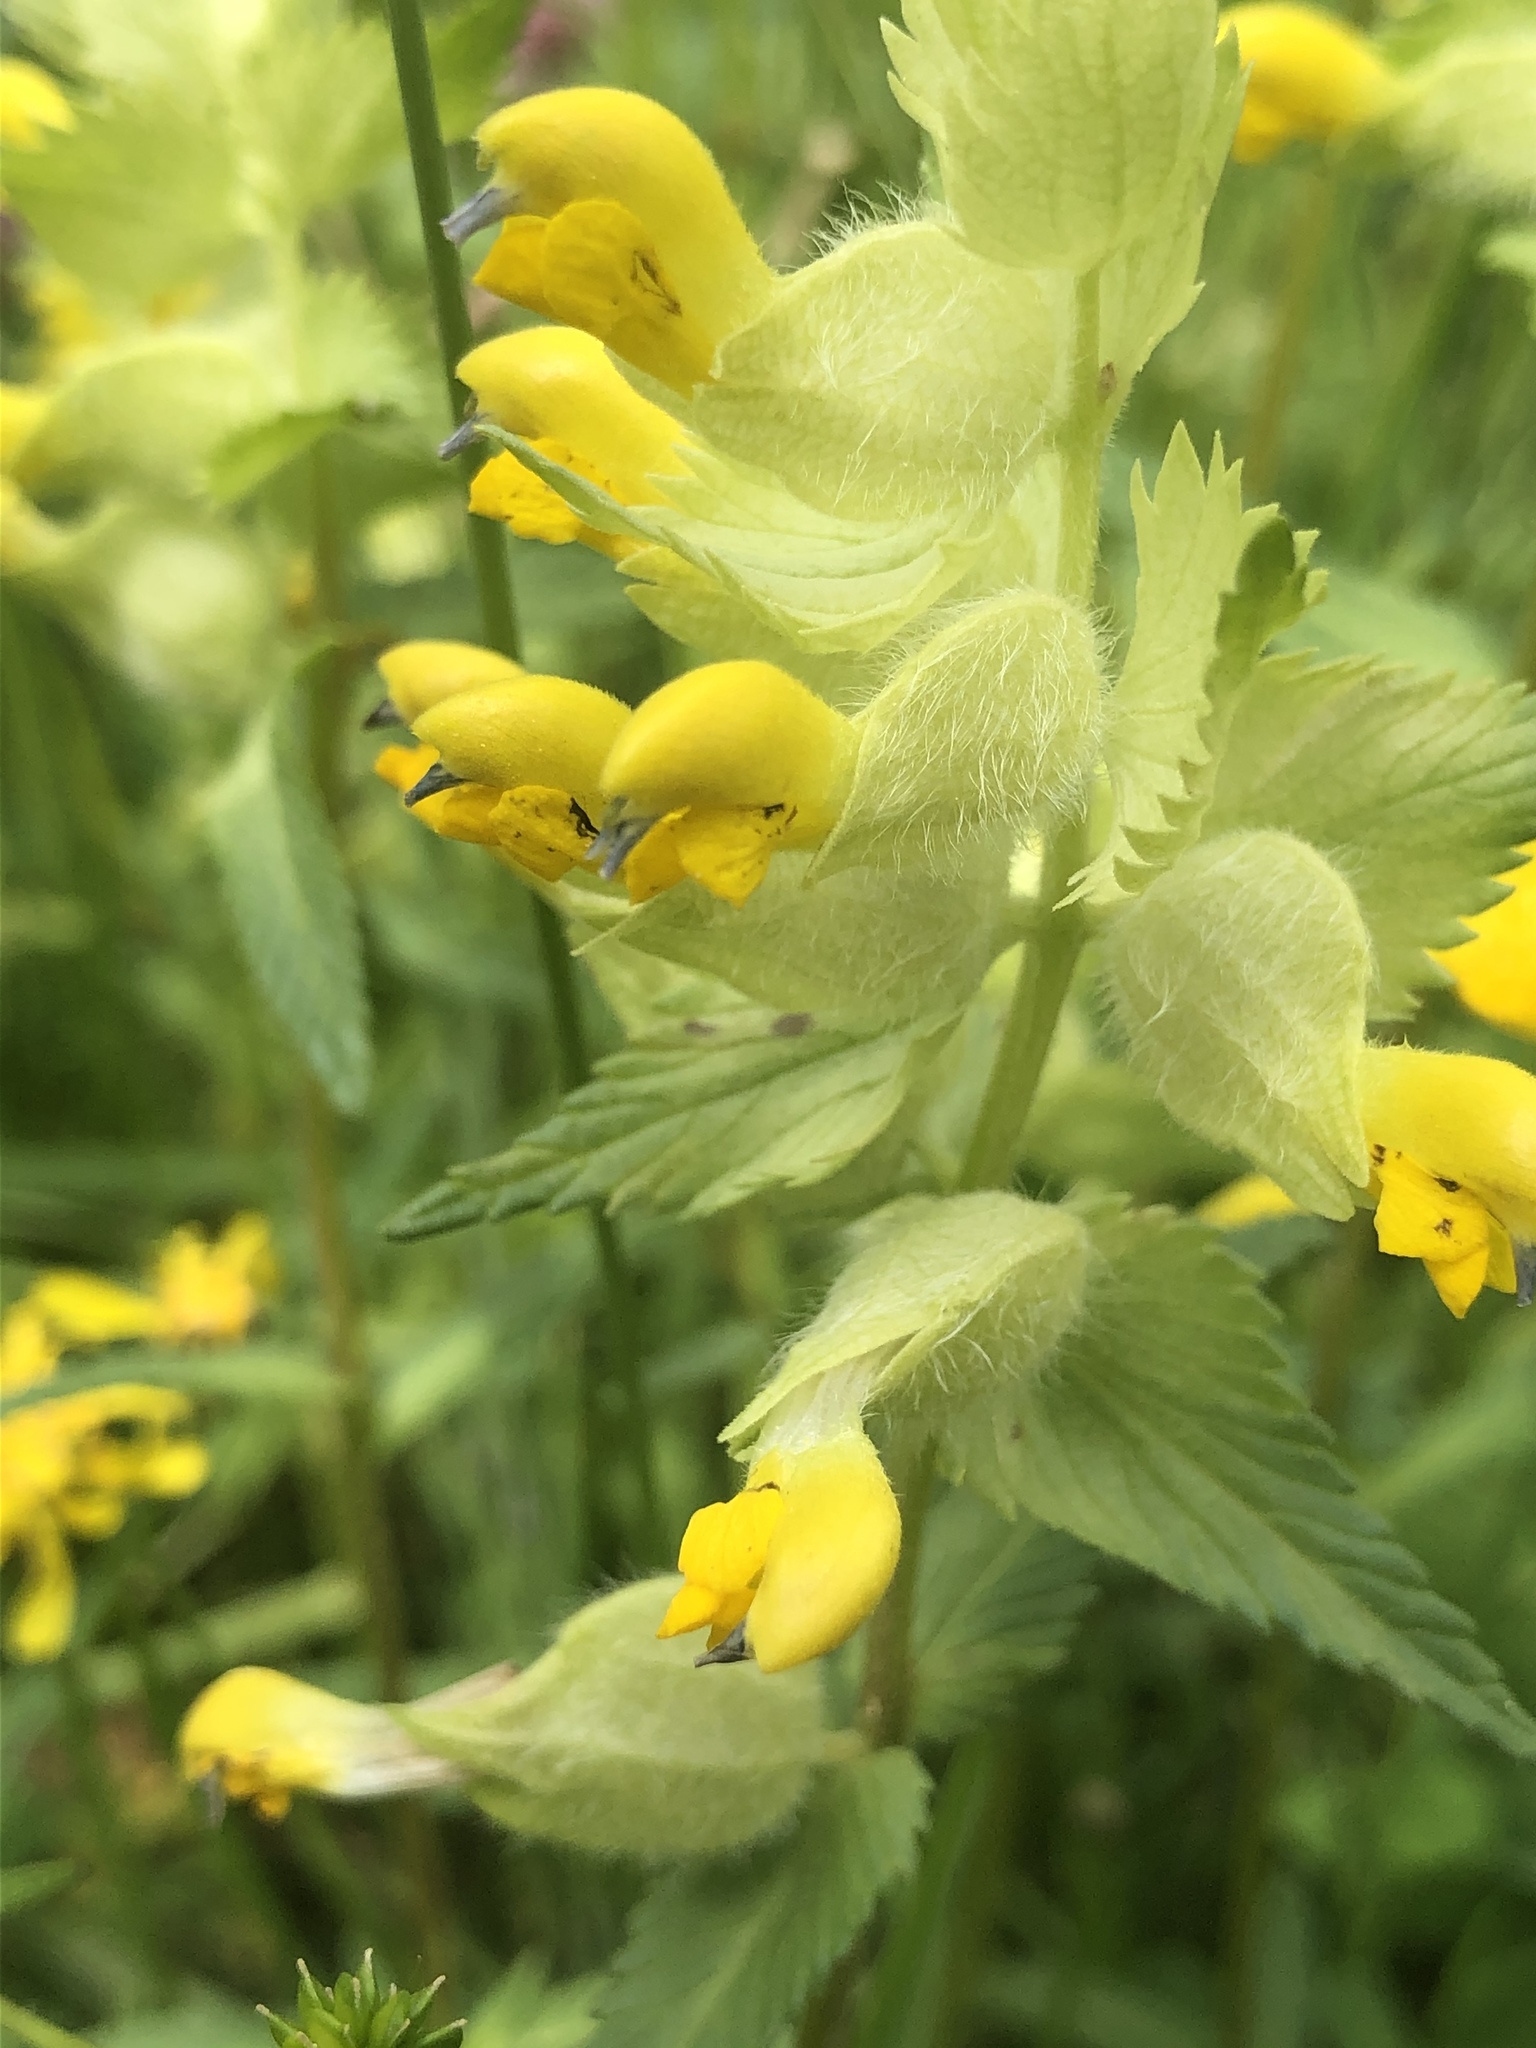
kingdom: Plantae
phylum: Tracheophyta
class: Magnoliopsida
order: Lamiales
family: Orobanchaceae
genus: Rhinanthus
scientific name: Rhinanthus alectorolophus
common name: Greater yellow-rattle
